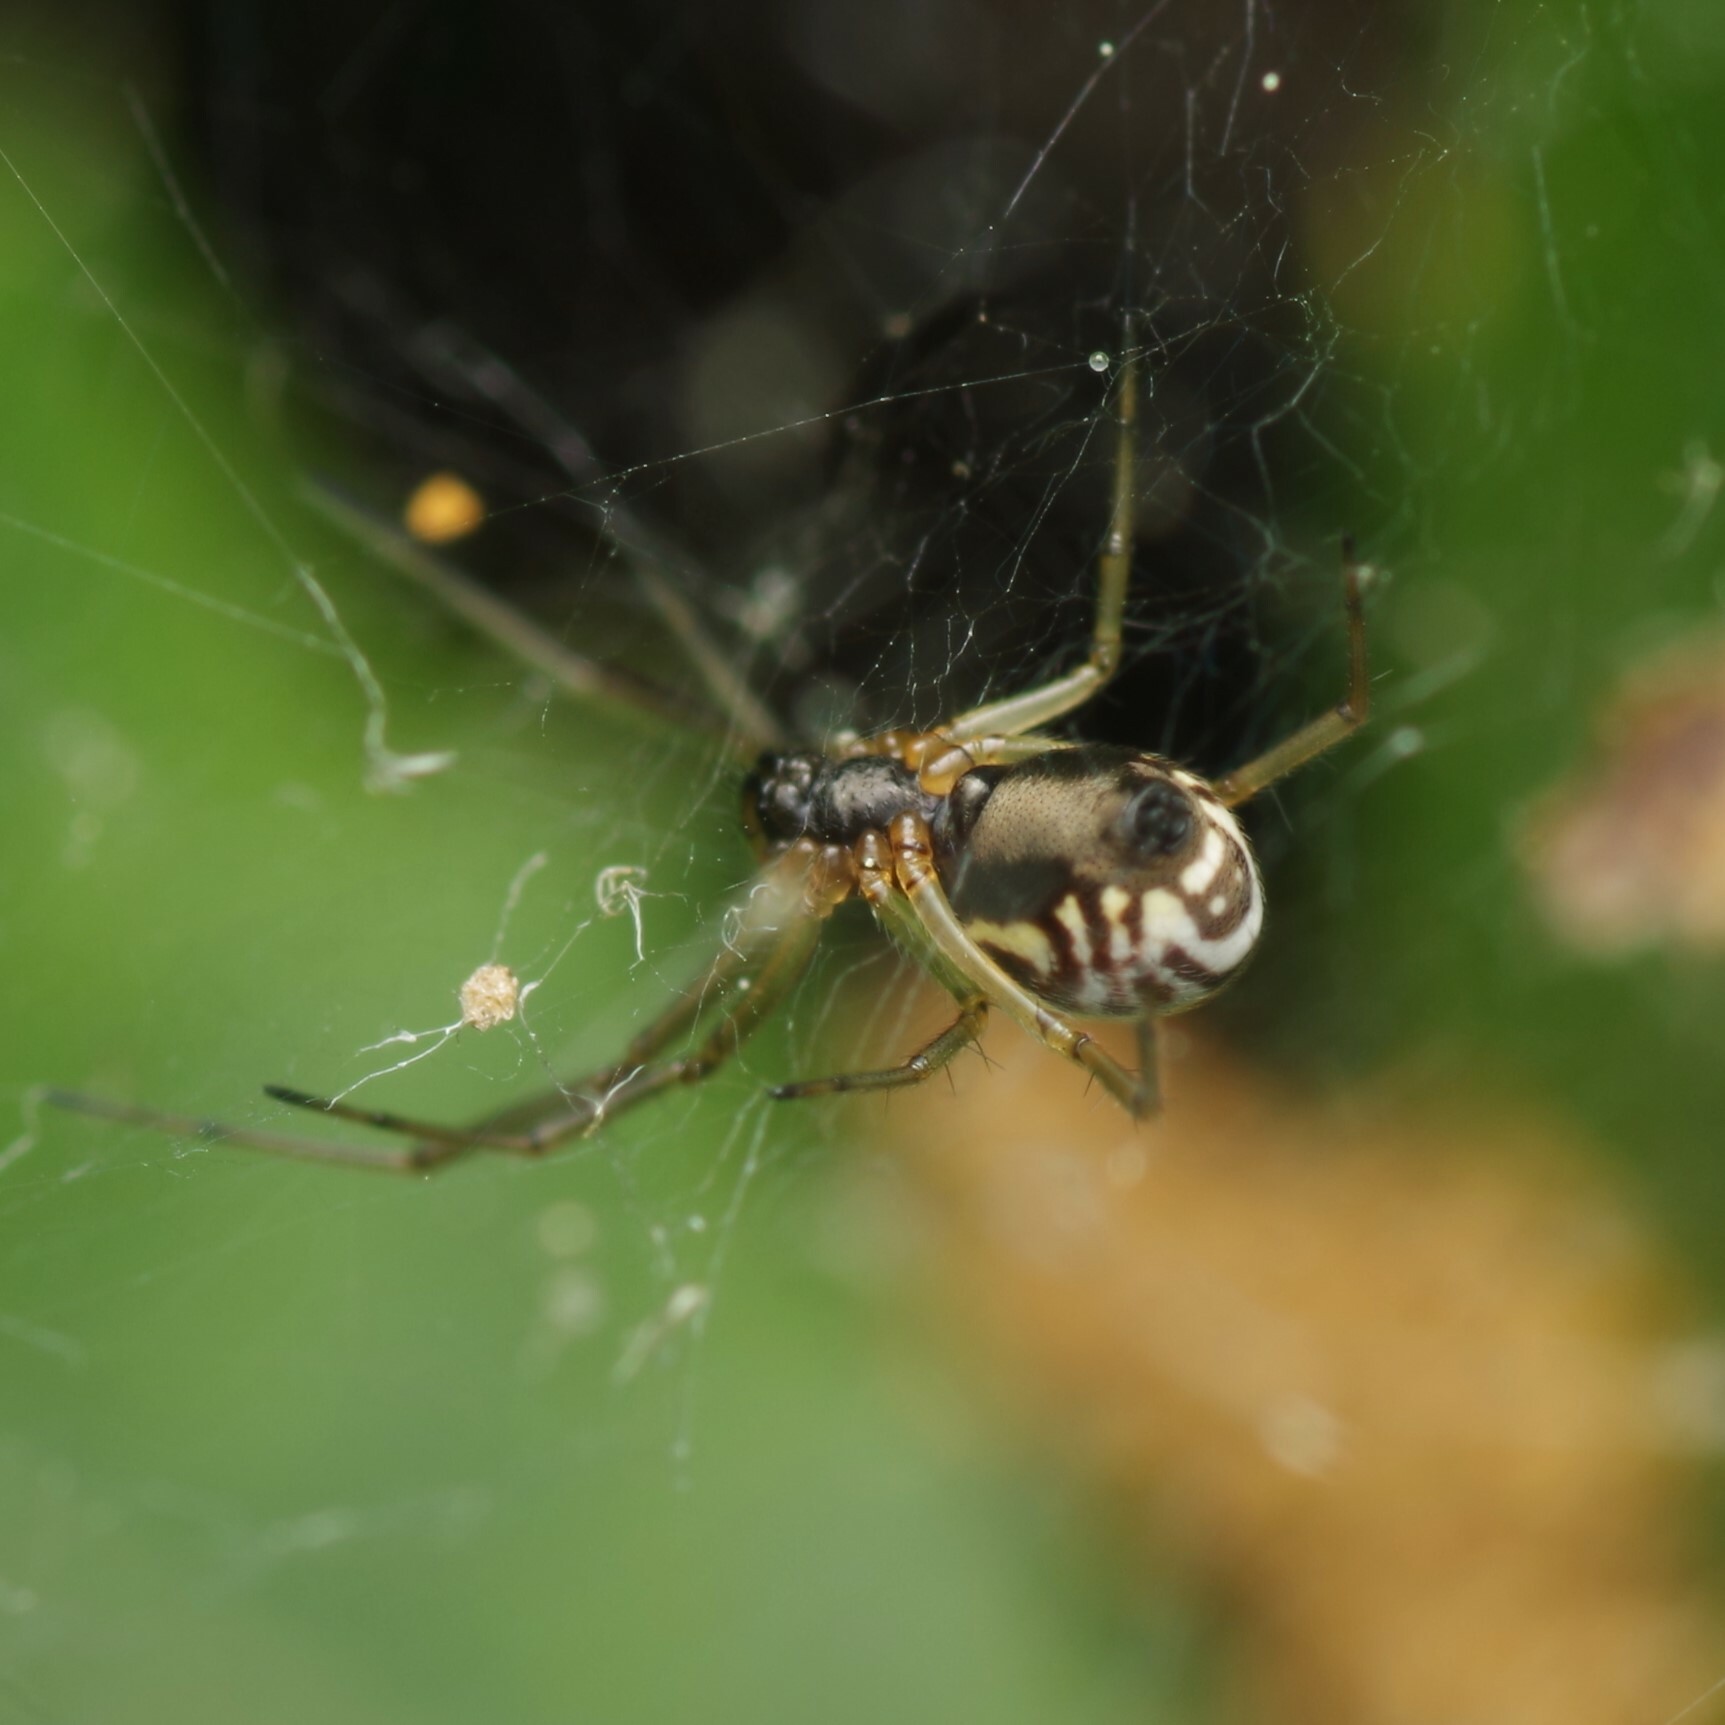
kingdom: Animalia
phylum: Arthropoda
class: Arachnida
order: Araneae
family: Linyphiidae
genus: Frontinellina
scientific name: Frontinellina frutetorum
